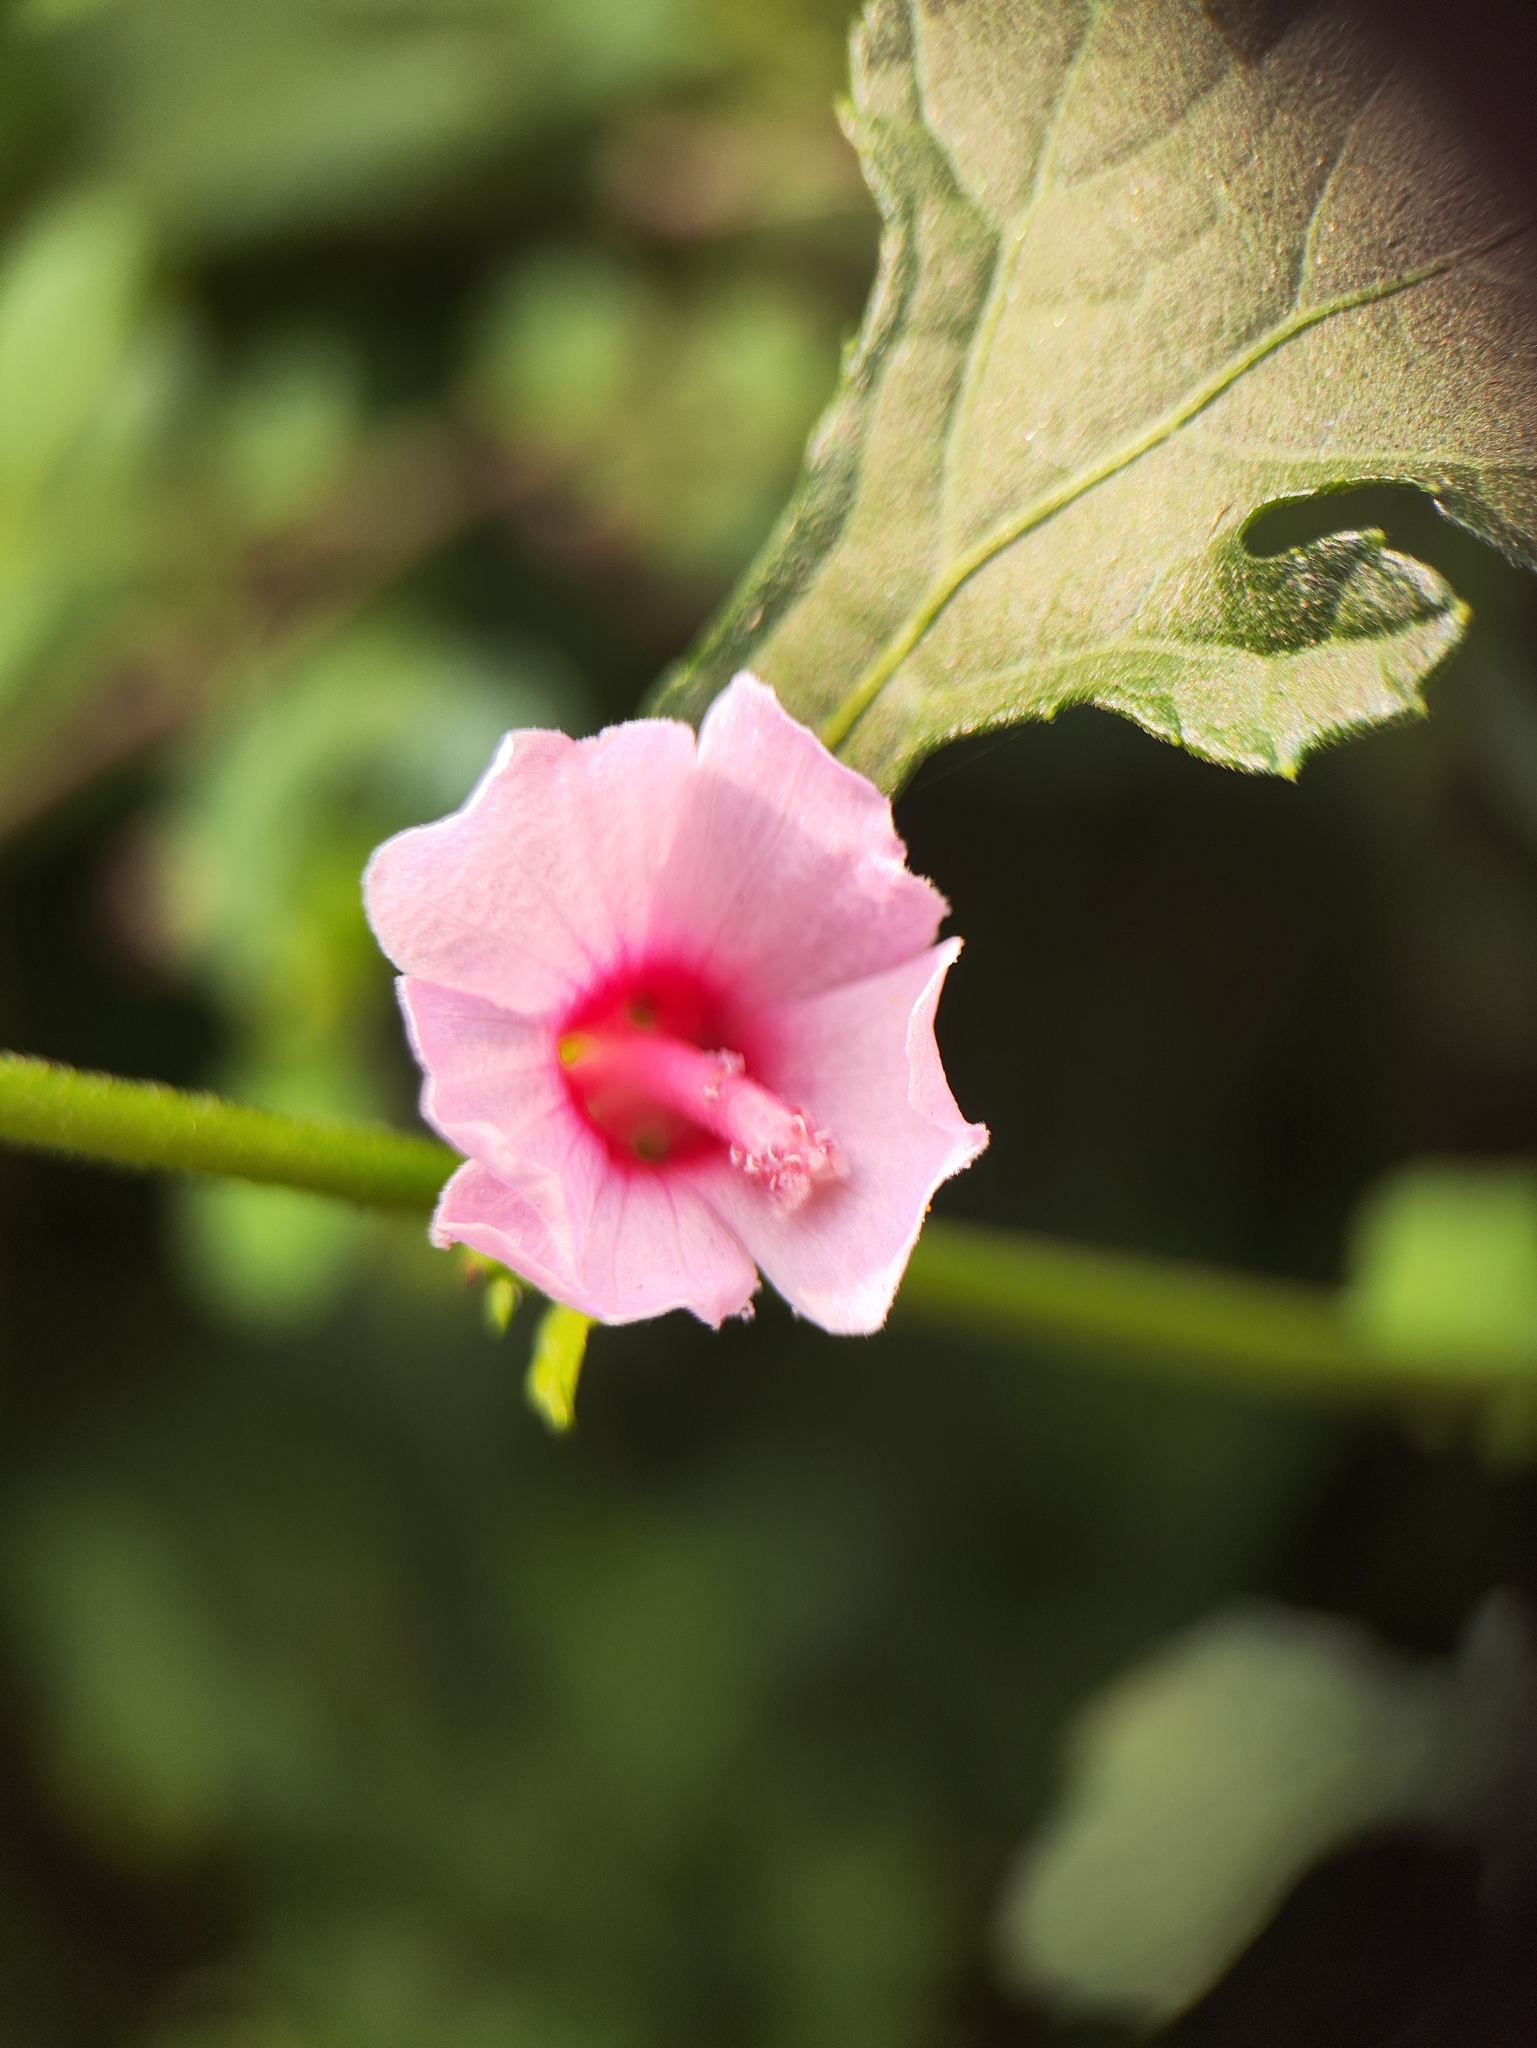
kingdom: Plantae
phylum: Tracheophyta
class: Magnoliopsida
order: Malvales
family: Malvaceae
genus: Urena
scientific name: Urena lobata
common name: Caesarweed
